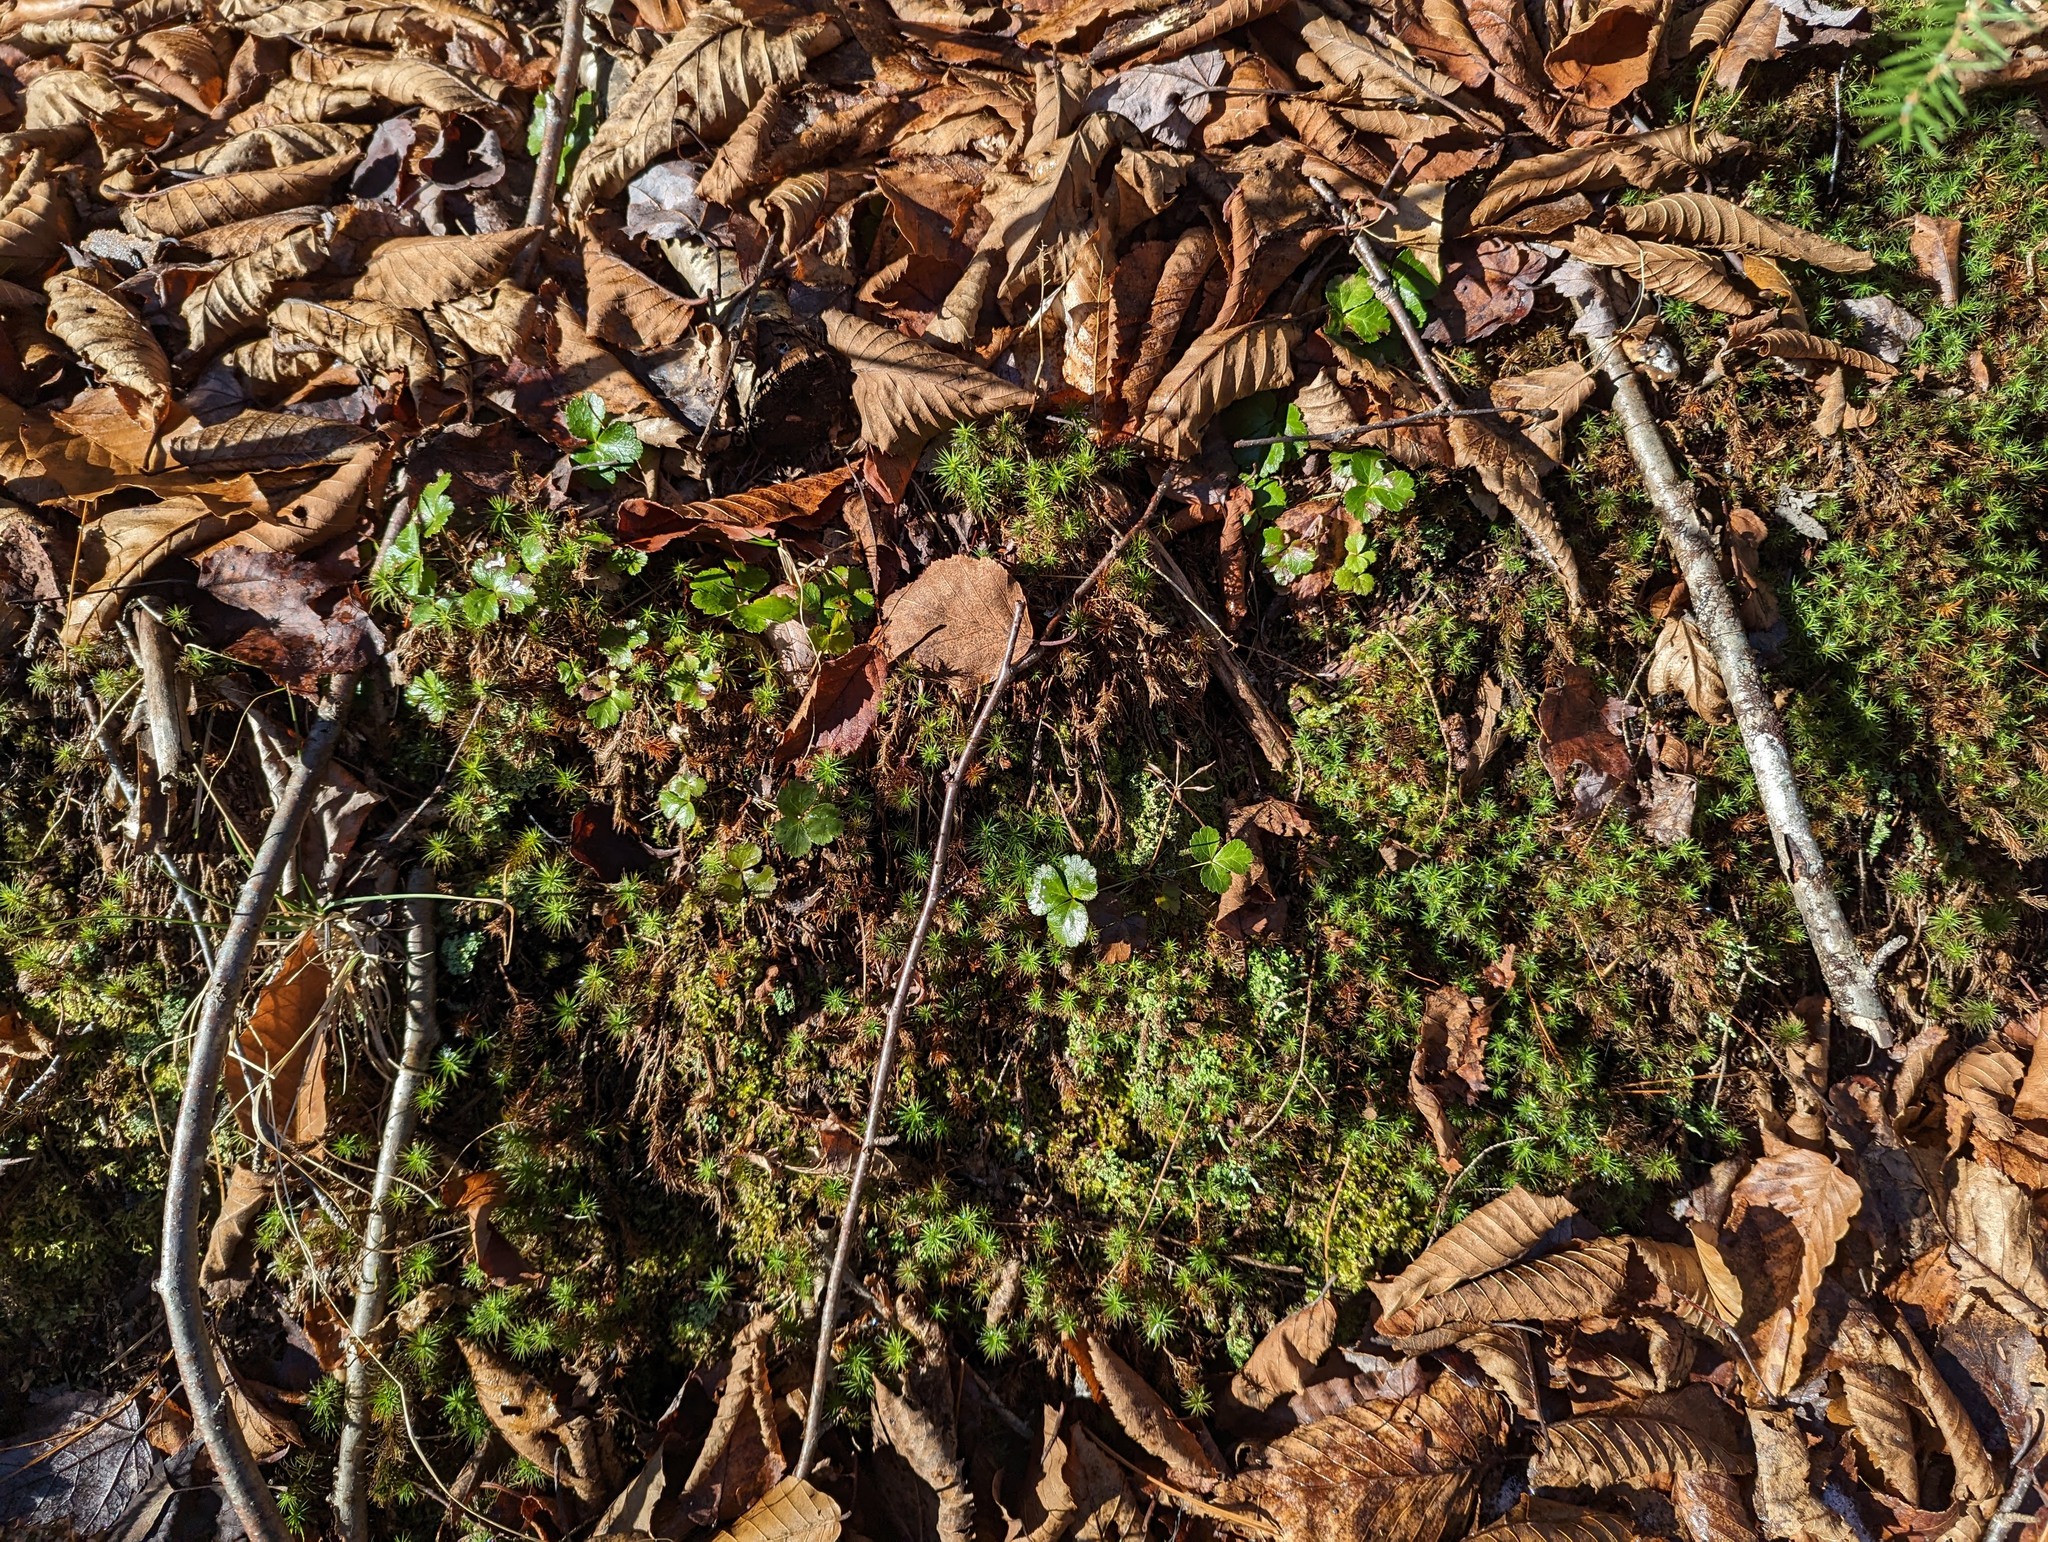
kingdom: Plantae
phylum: Tracheophyta
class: Magnoliopsida
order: Ranunculales
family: Ranunculaceae
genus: Coptis
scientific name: Coptis trifolia
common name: Canker-root
